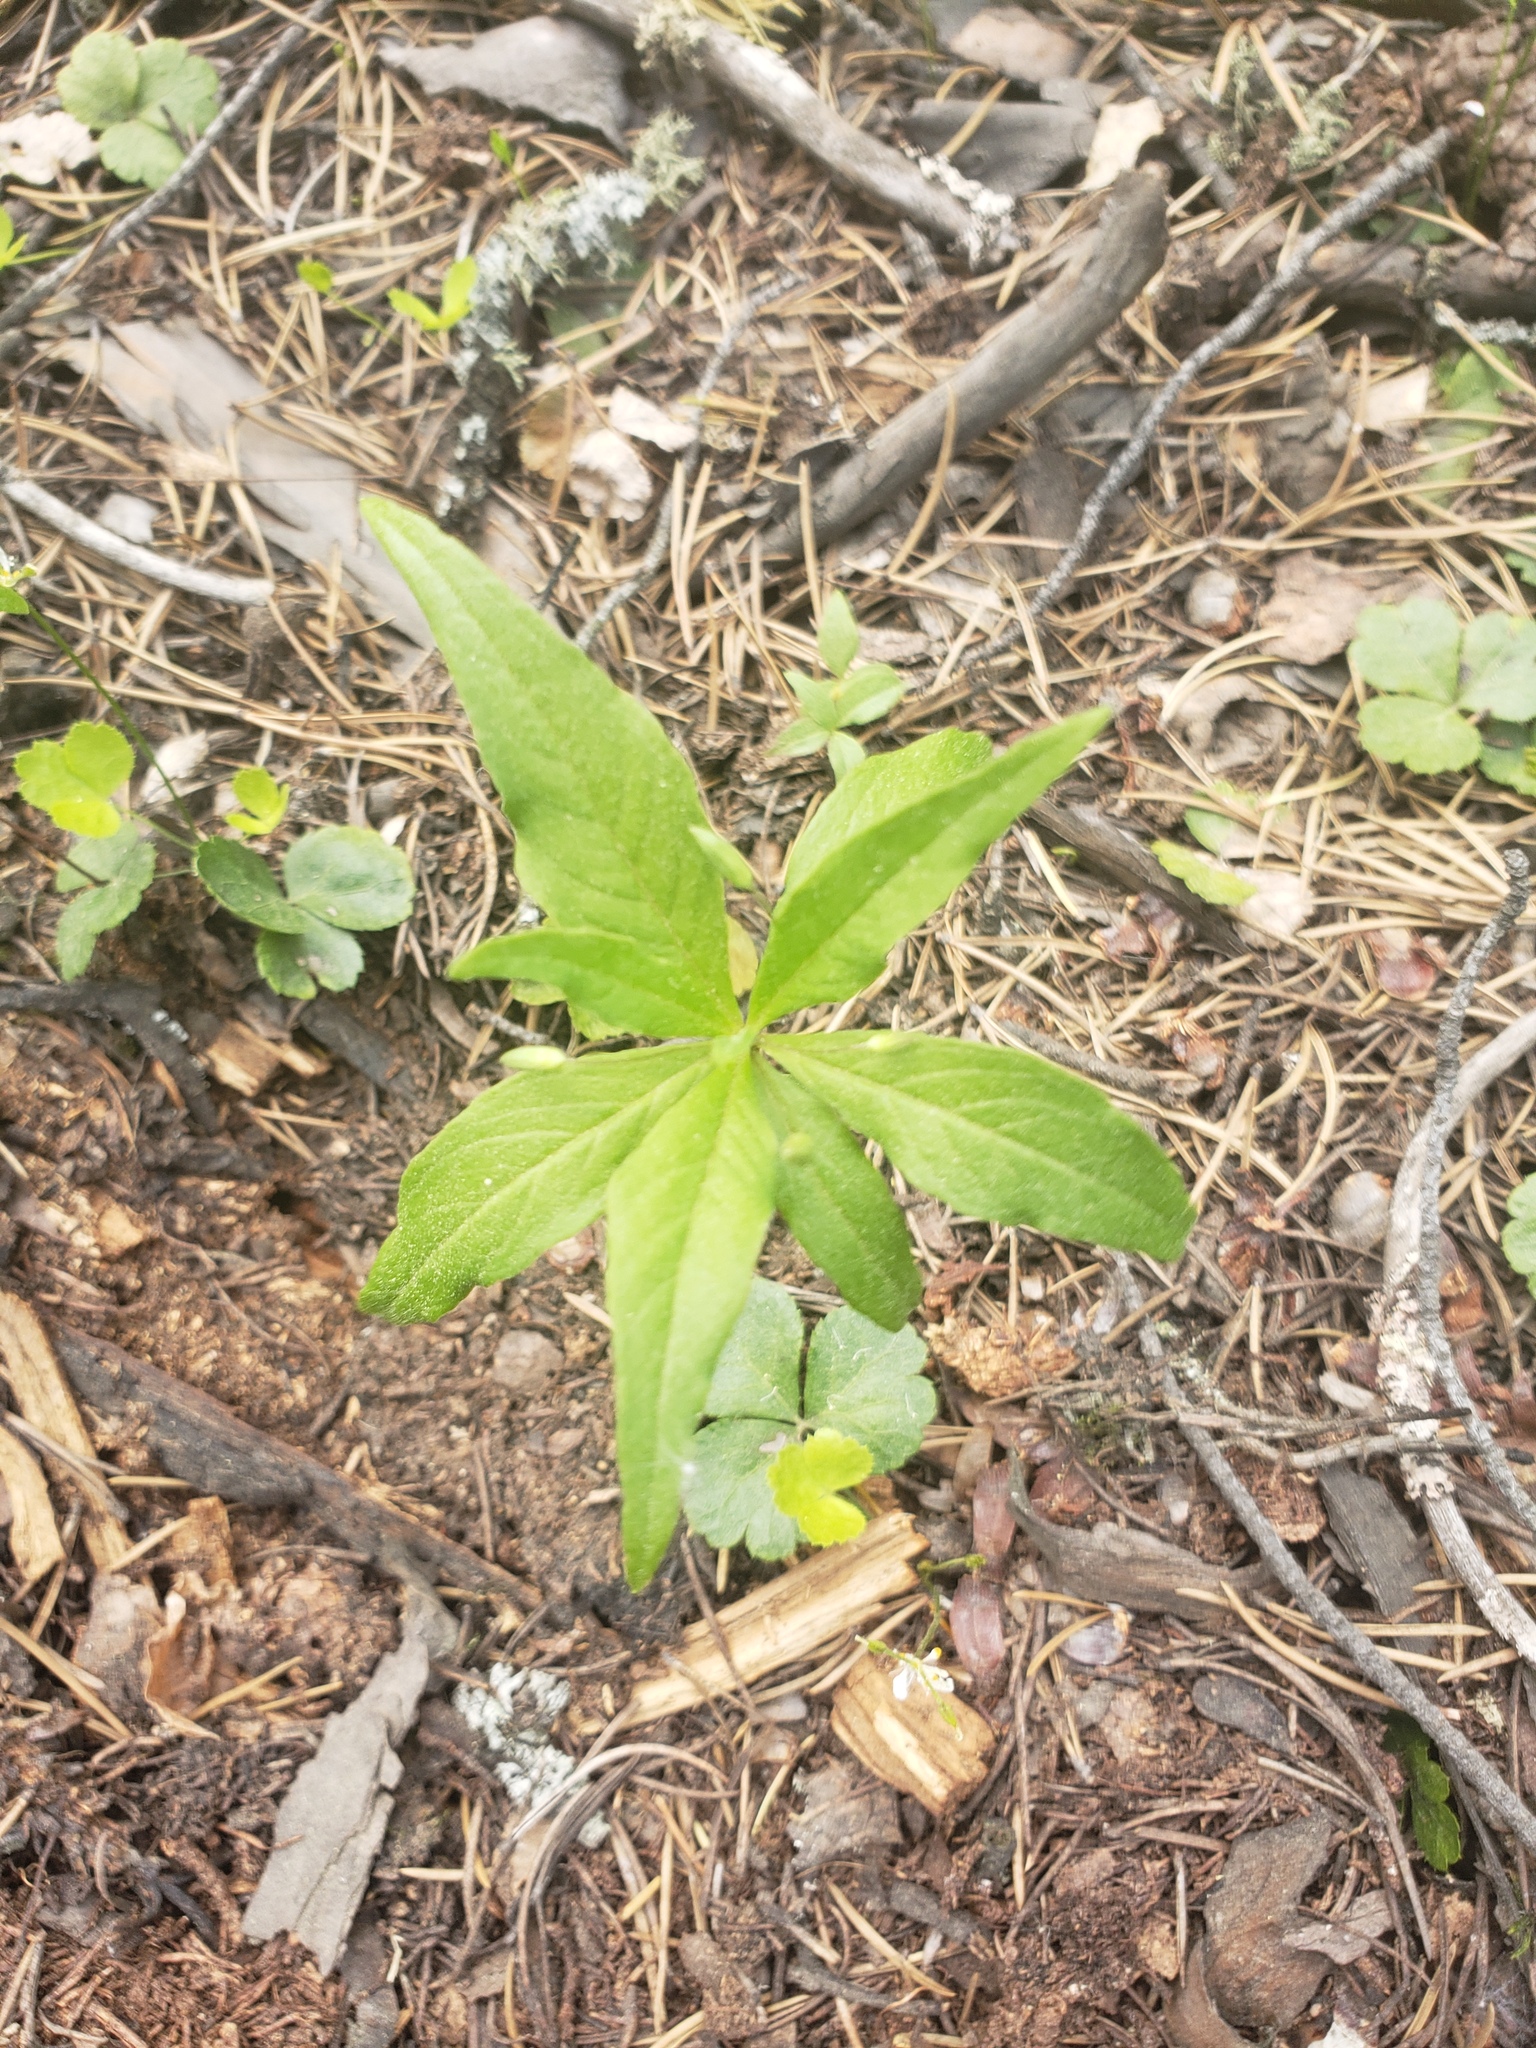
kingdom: Plantae
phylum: Tracheophyta
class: Magnoliopsida
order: Ericales
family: Primulaceae
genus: Lysimachia
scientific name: Lysimachia borealis
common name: American starflower
